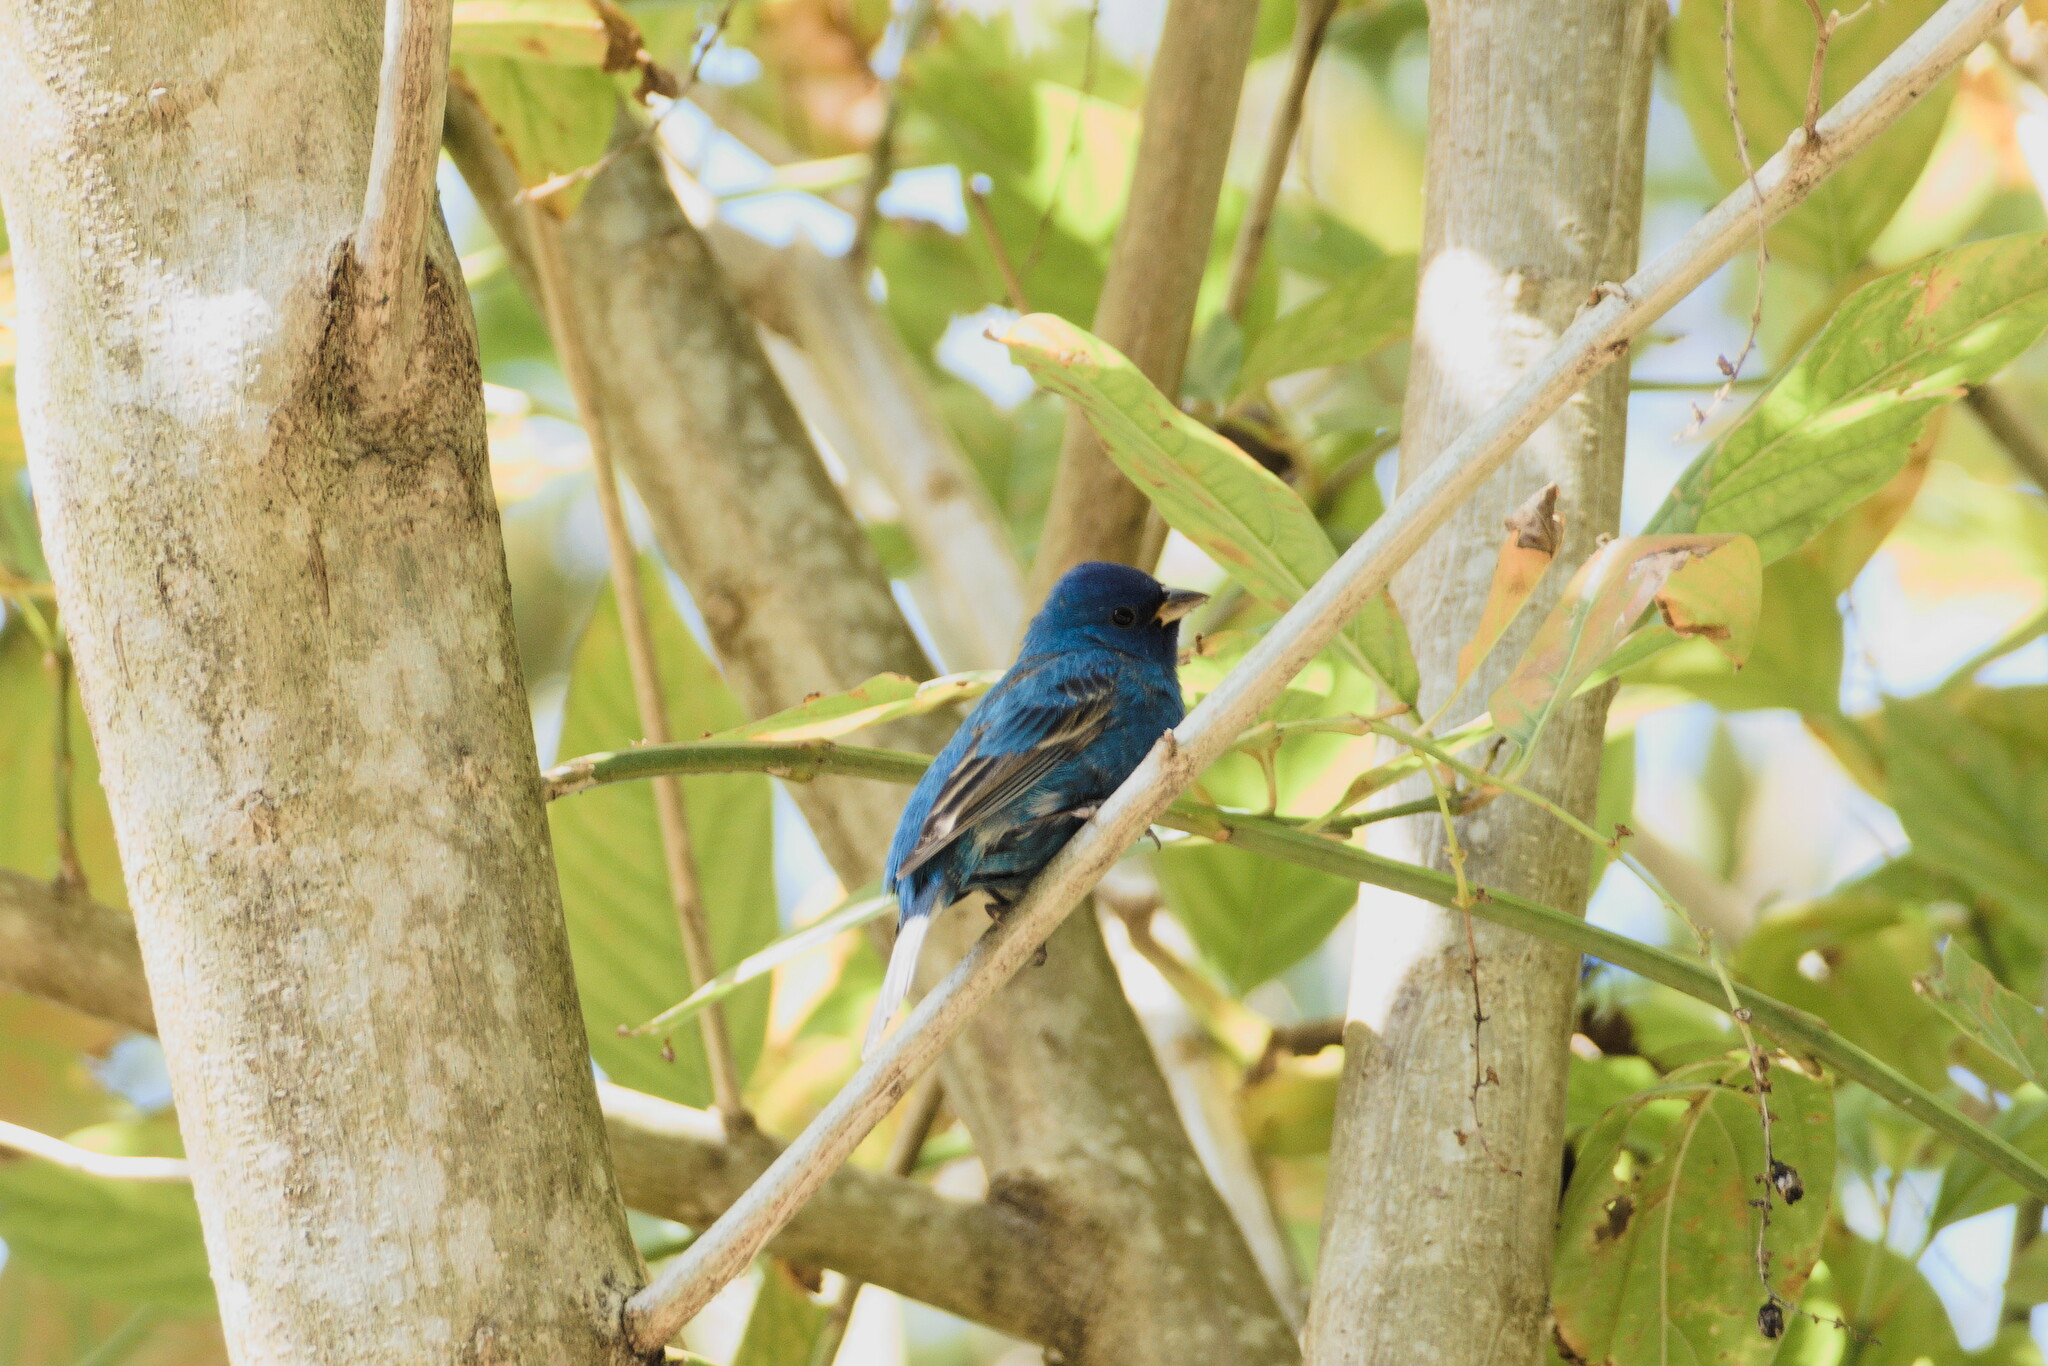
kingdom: Animalia
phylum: Chordata
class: Aves
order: Passeriformes
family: Cardinalidae
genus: Passerina
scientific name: Passerina cyanea
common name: Indigo bunting
